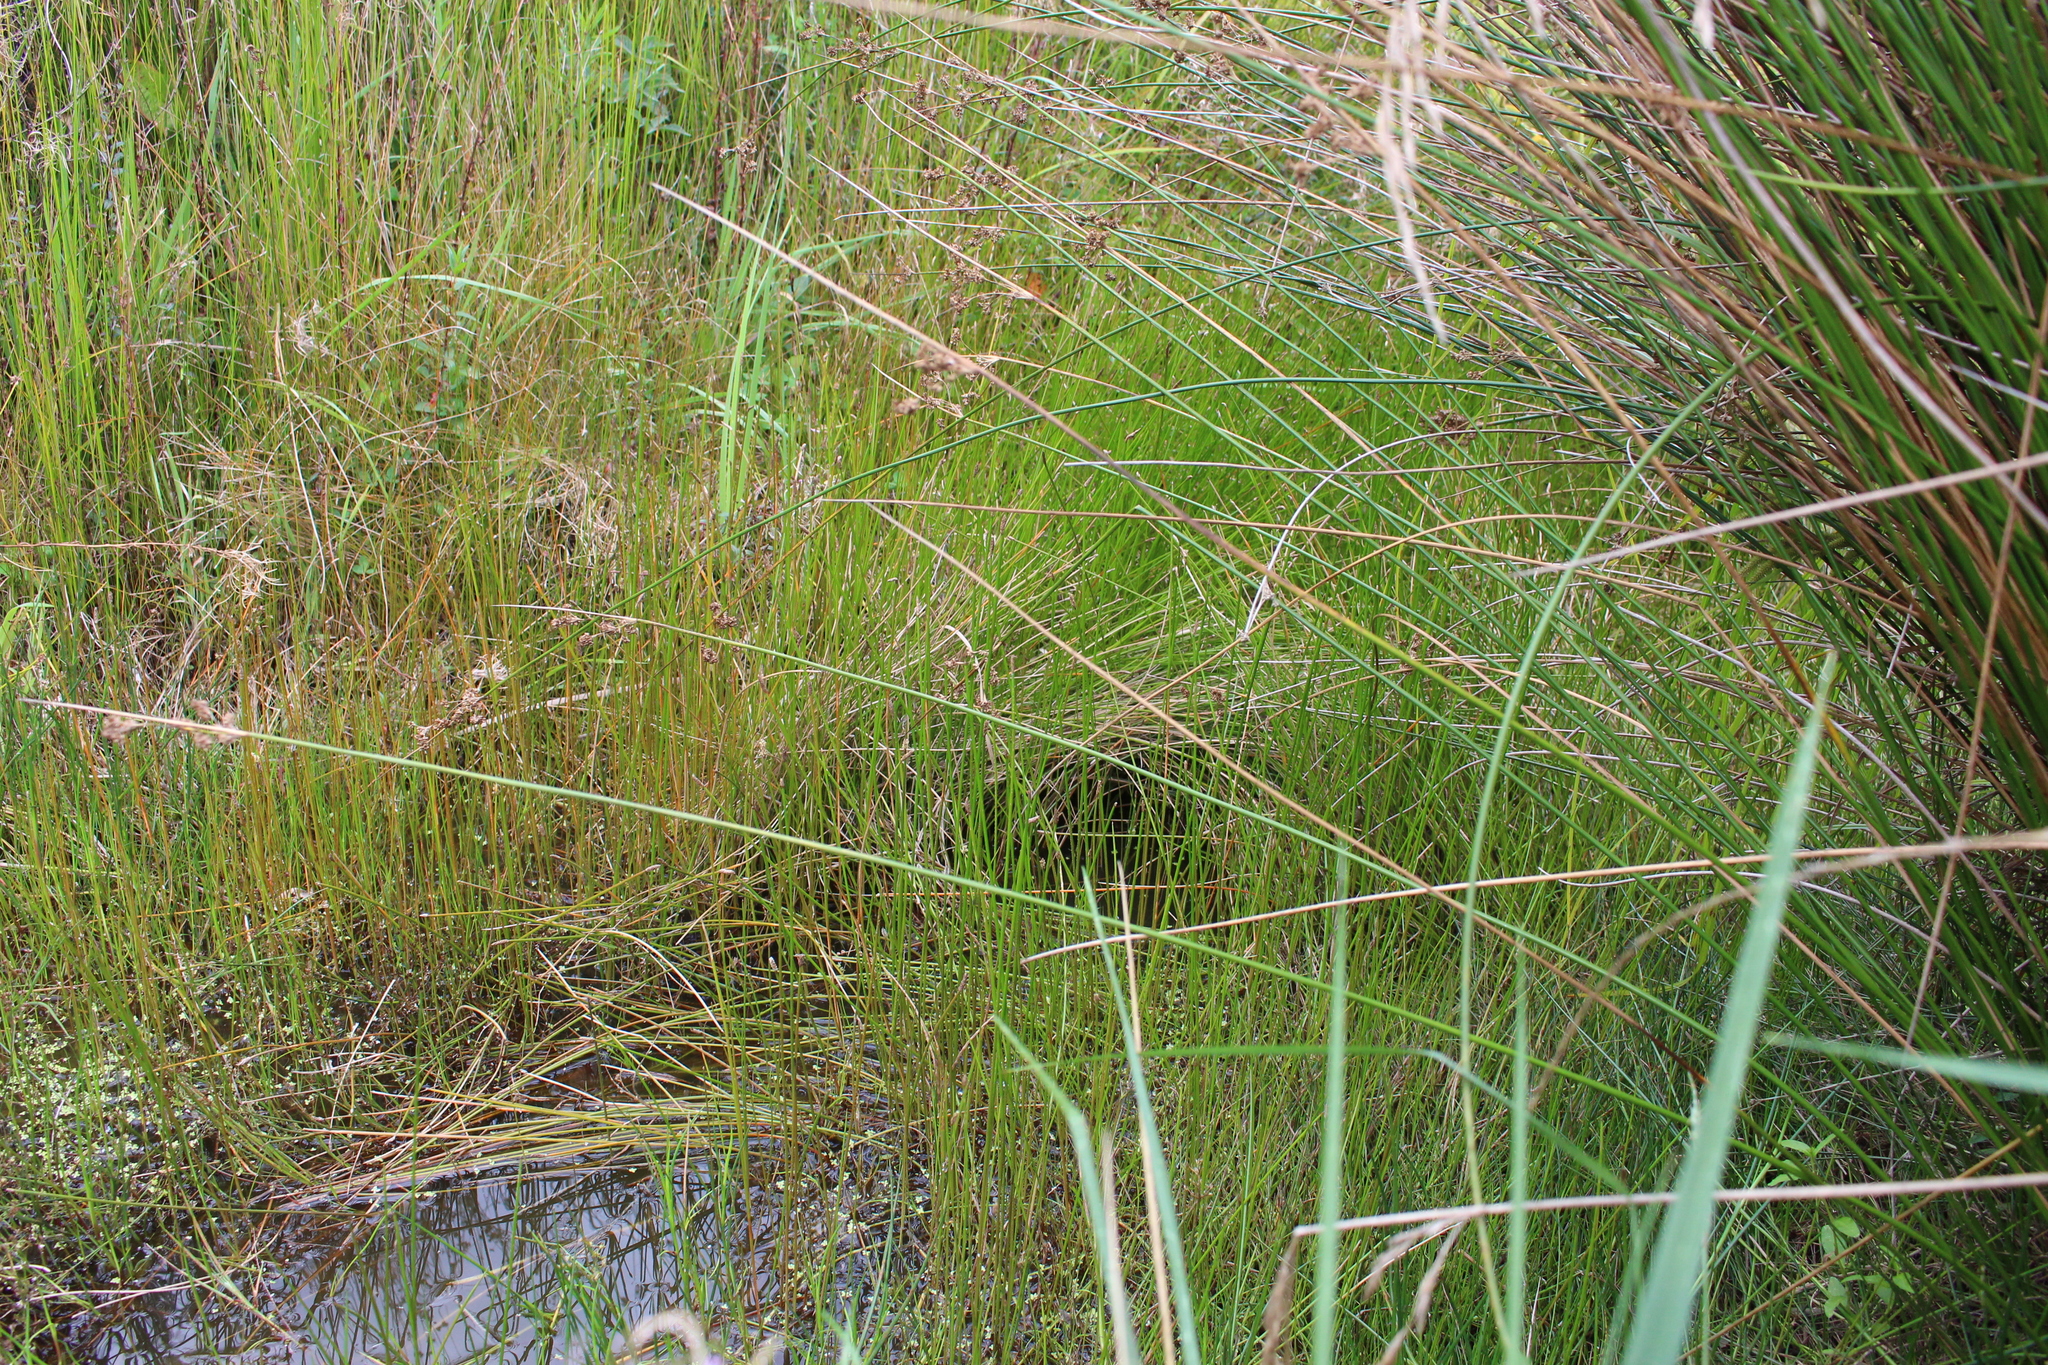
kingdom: Plantae
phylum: Tracheophyta
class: Liliopsida
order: Poales
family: Cyperaceae
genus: Eleocharis
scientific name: Eleocharis acuta
